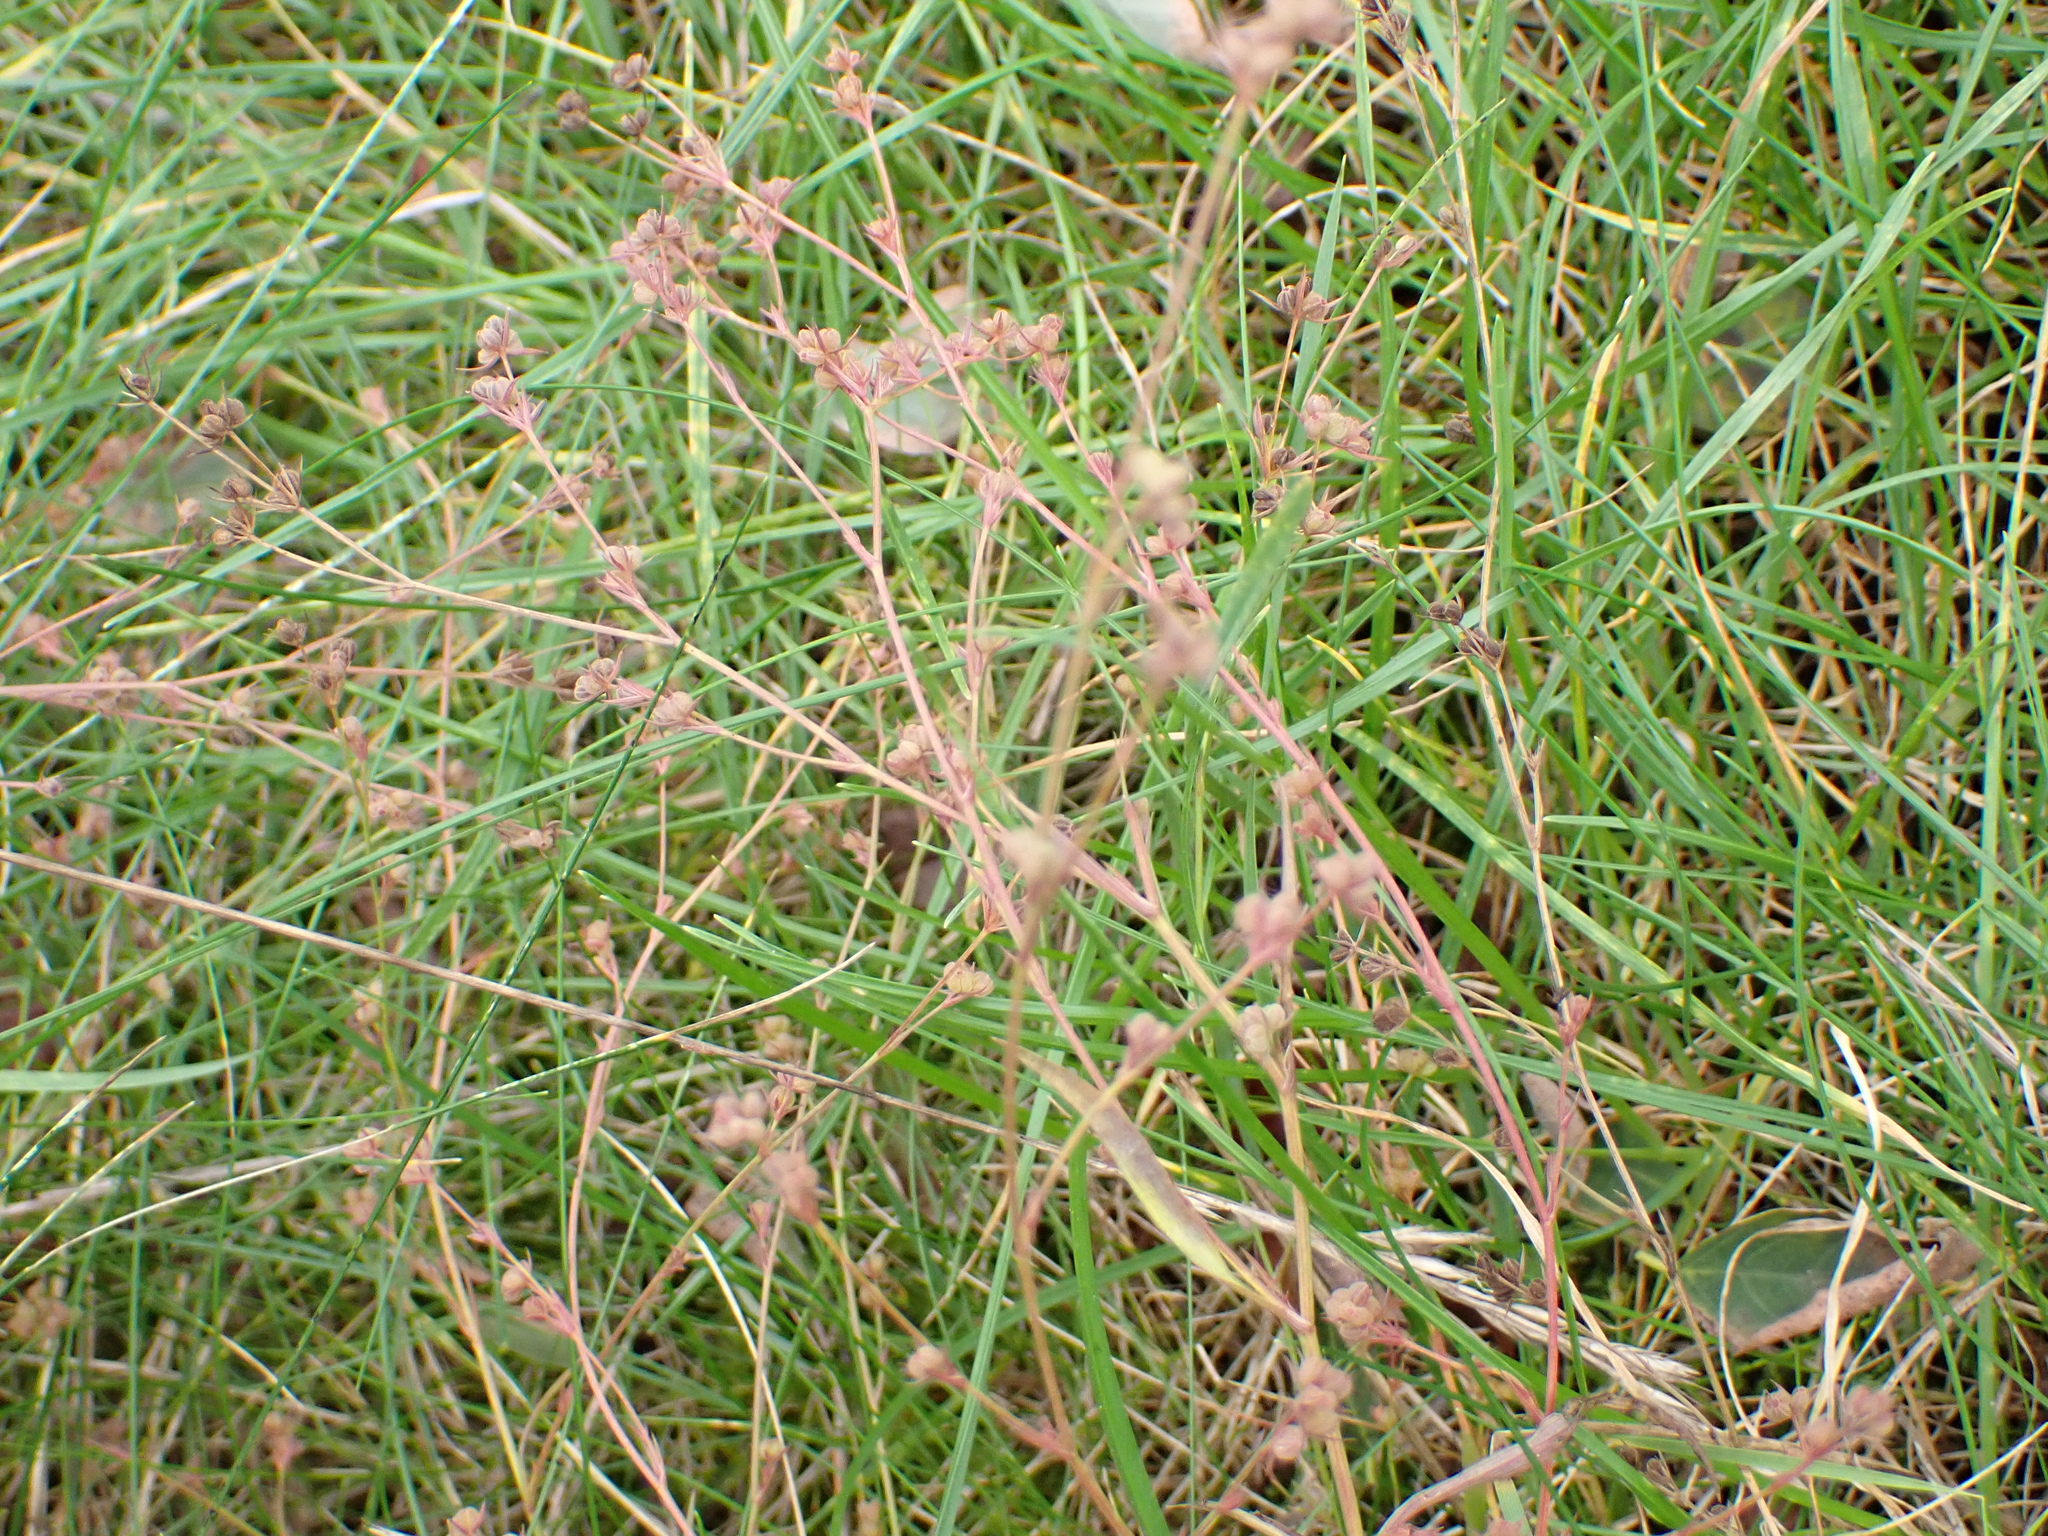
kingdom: Plantae
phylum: Tracheophyta
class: Magnoliopsida
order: Apiales
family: Apiaceae
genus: Bupleurum
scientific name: Bupleurum tenuissimum
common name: Slender hare's-ear
